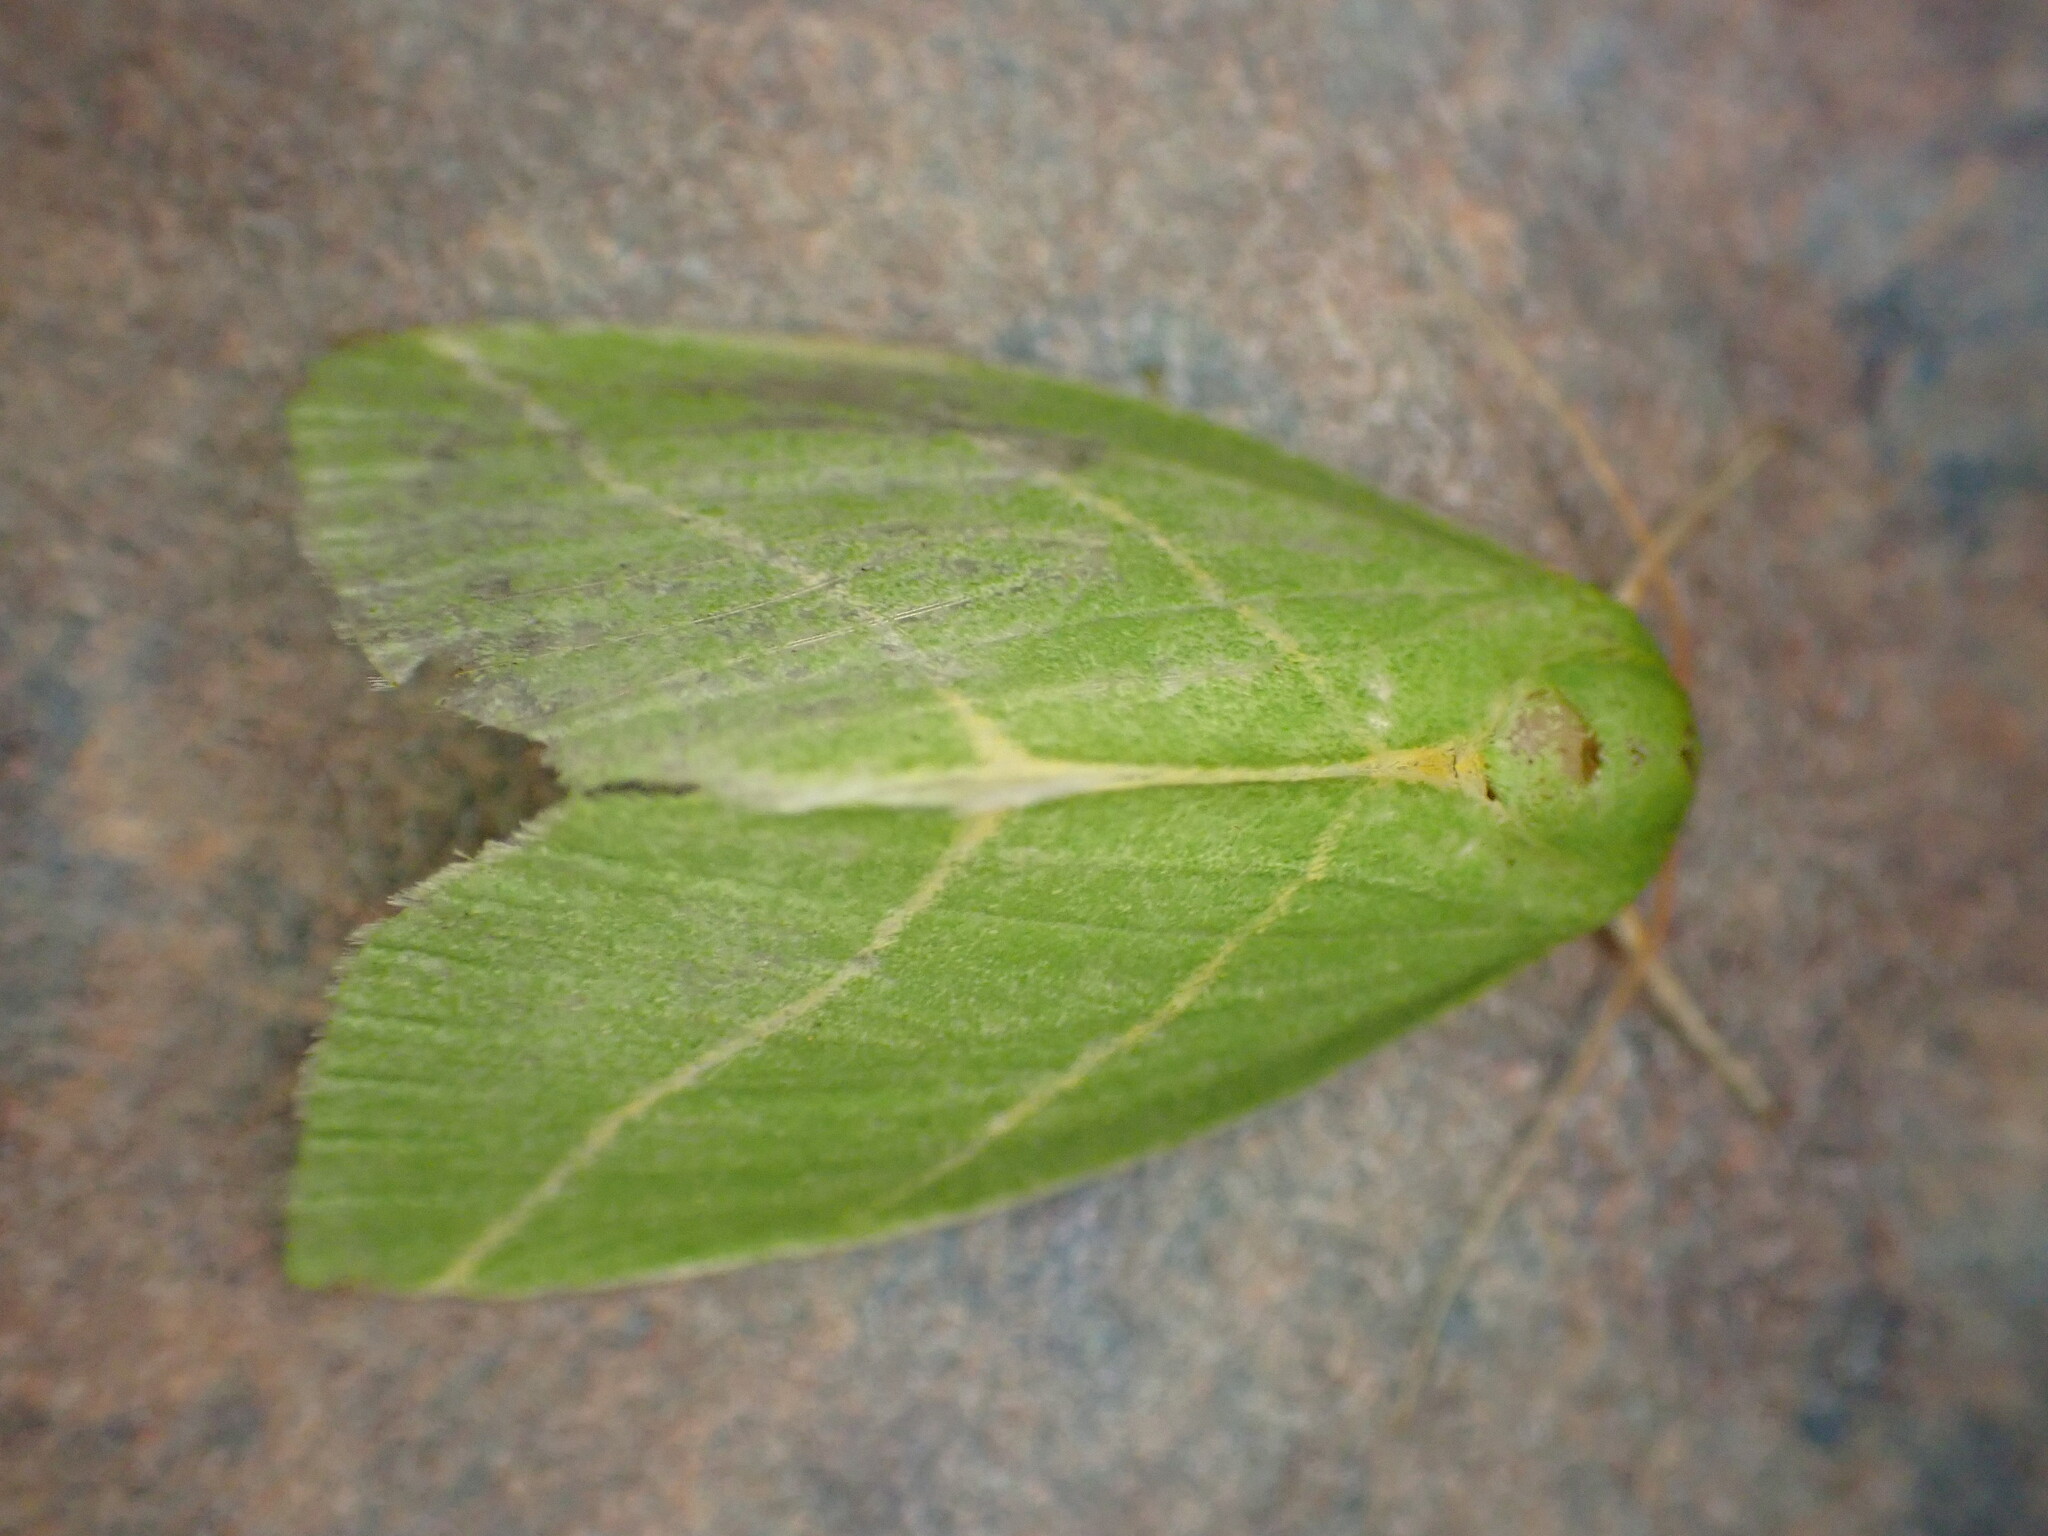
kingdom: Animalia
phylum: Arthropoda
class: Insecta
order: Lepidoptera
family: Nolidae
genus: Bena
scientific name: Bena bicolorana
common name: Scarce silver-lines
